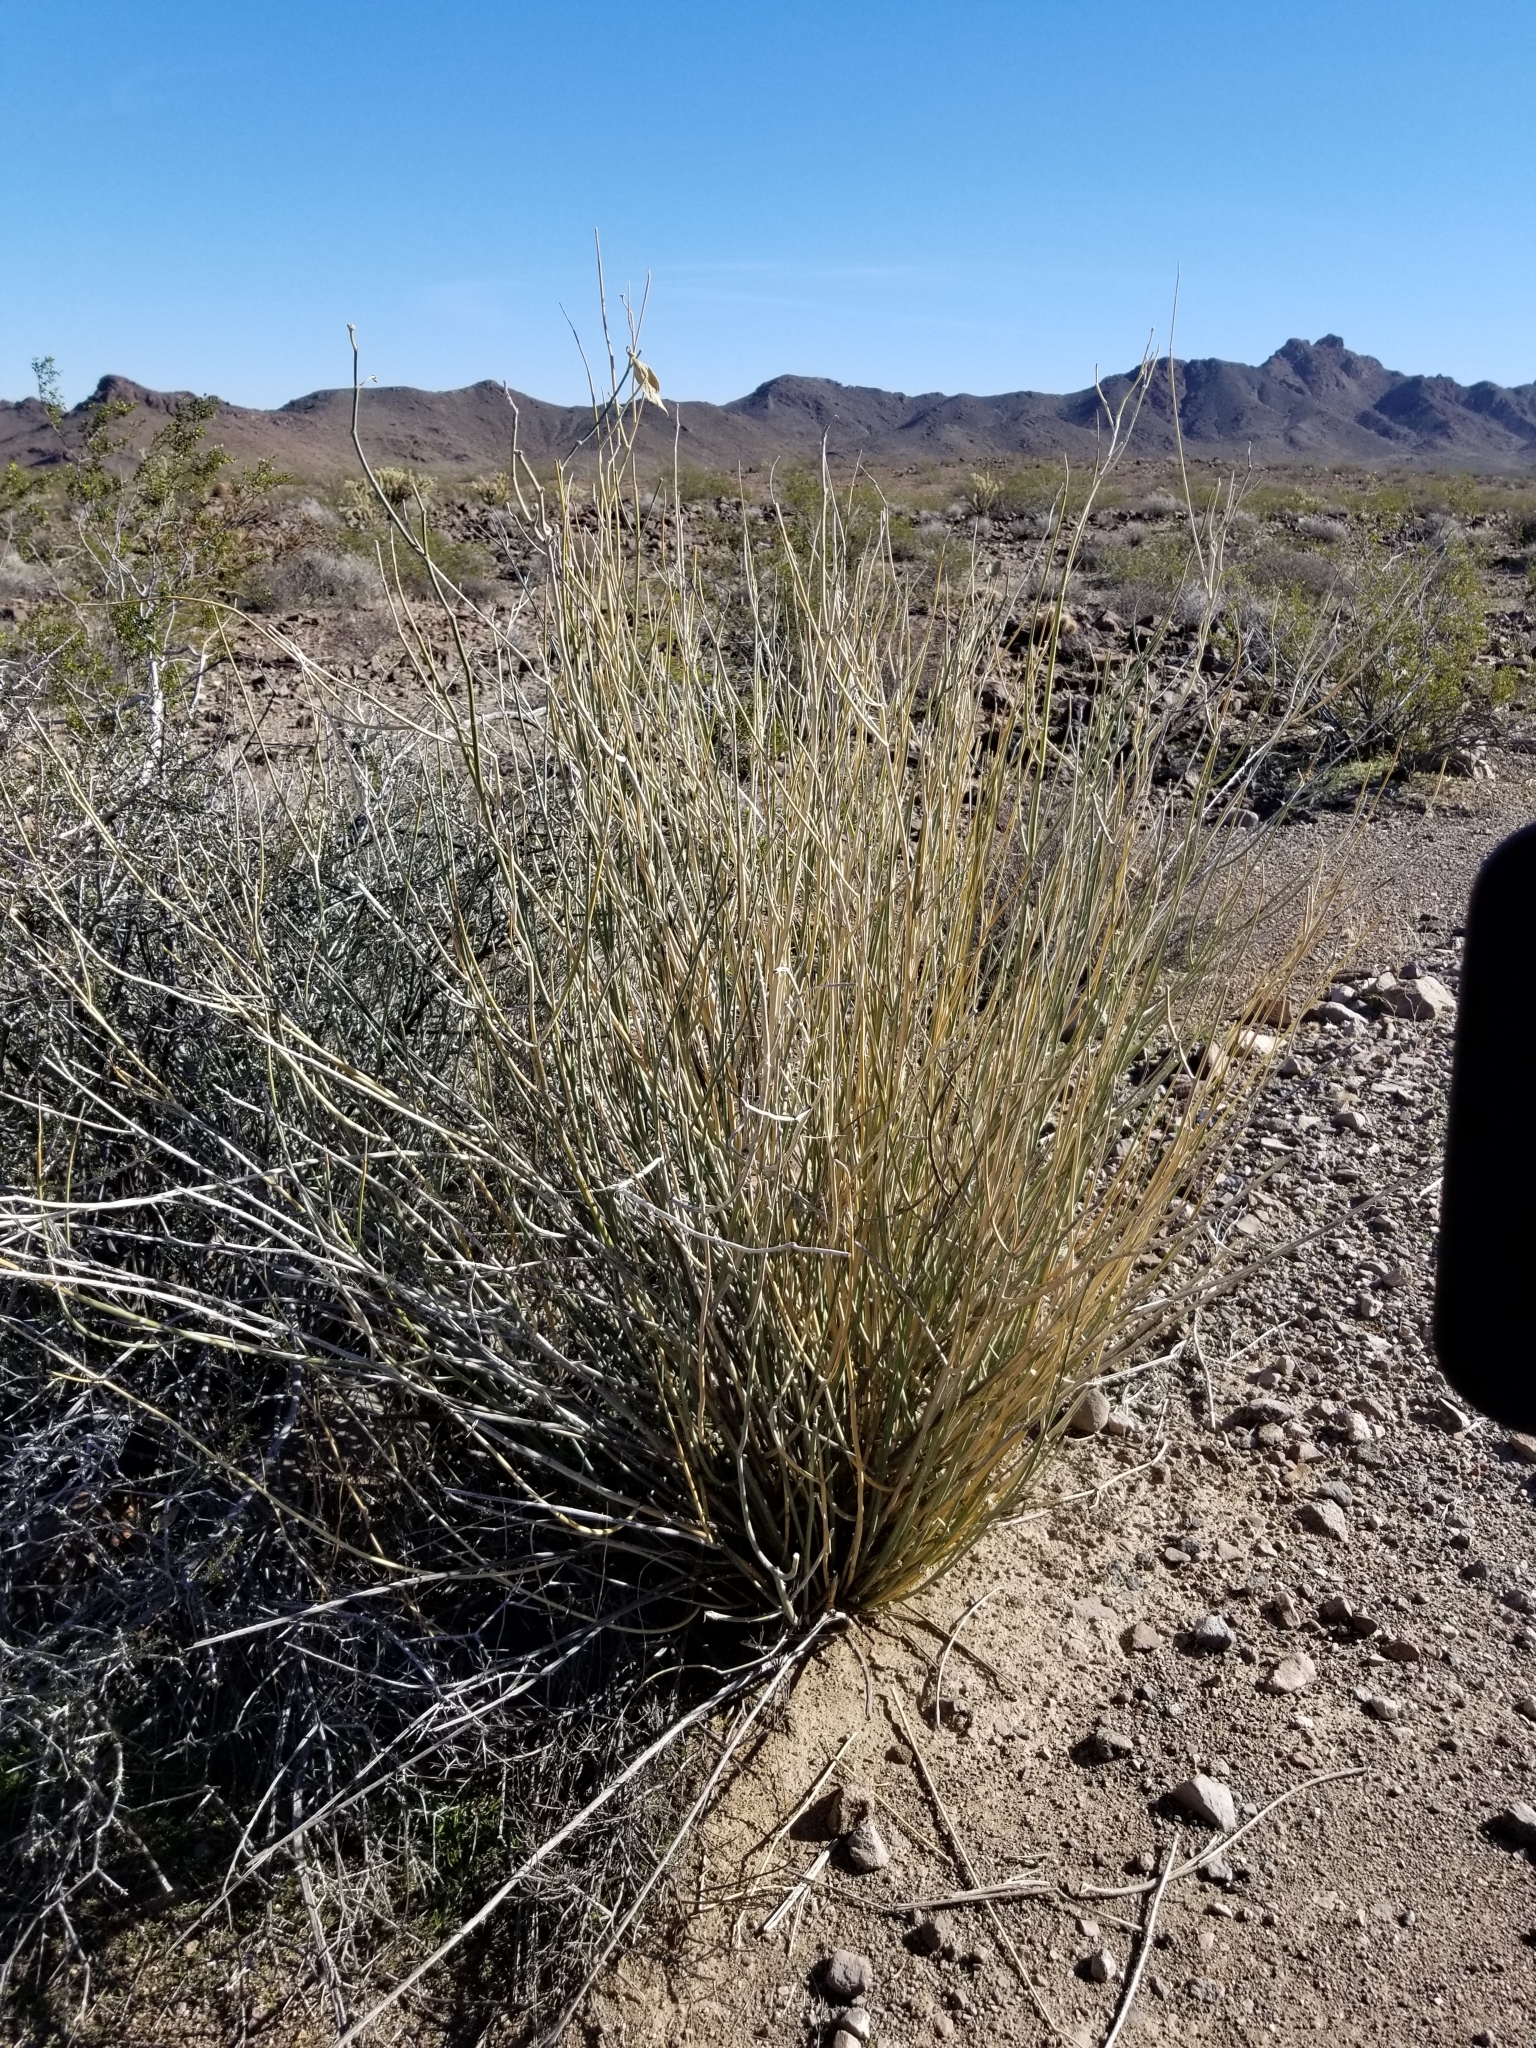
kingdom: Plantae
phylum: Tracheophyta
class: Magnoliopsida
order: Gentianales
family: Apocynaceae
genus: Asclepias
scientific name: Asclepias subulata
